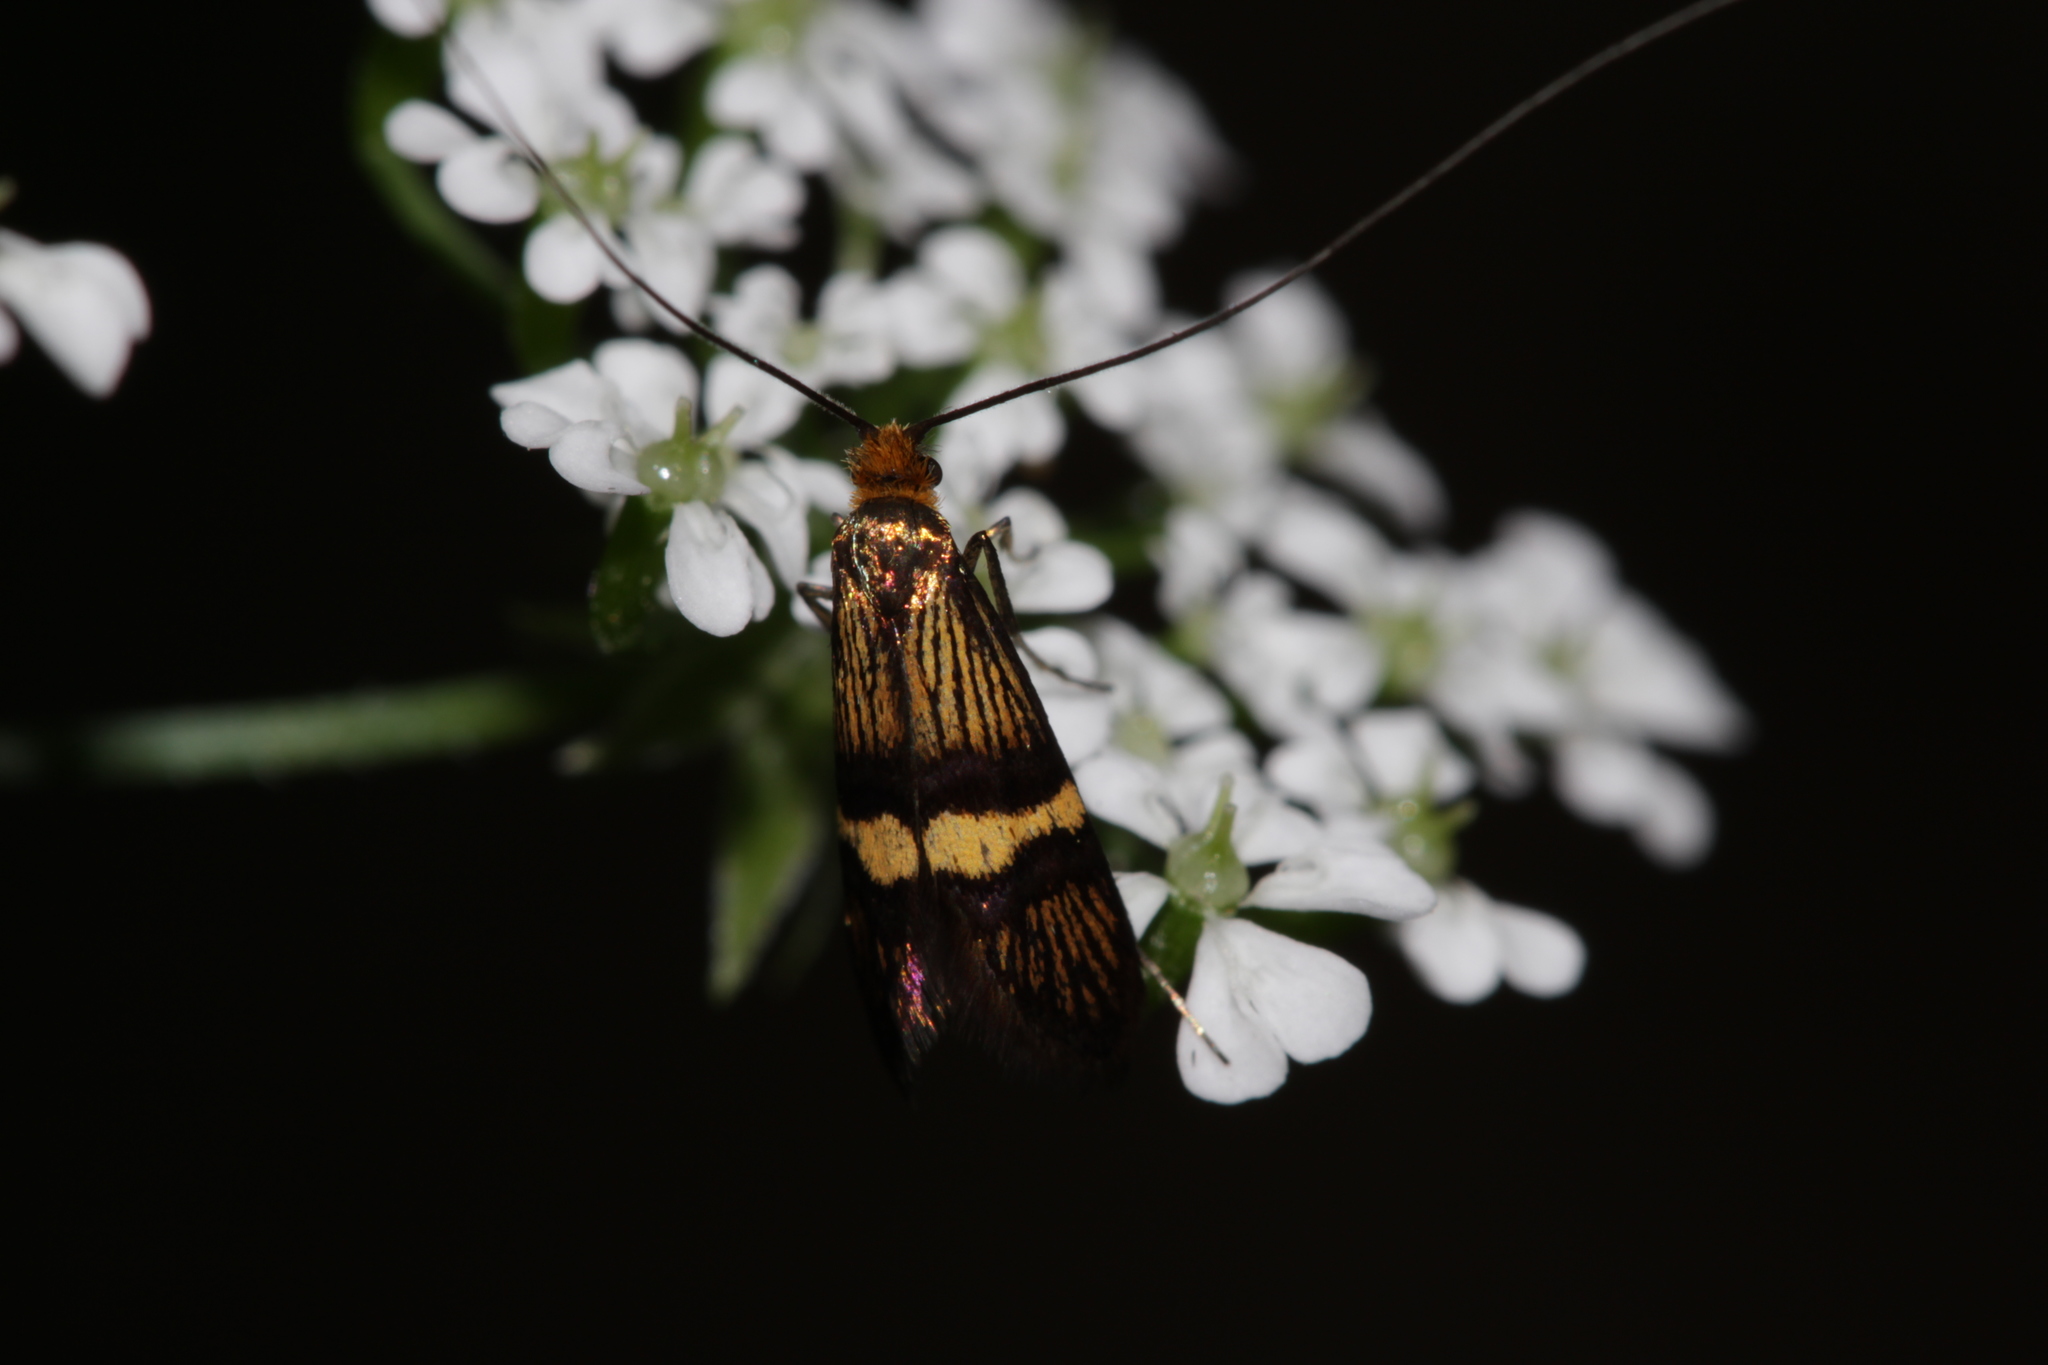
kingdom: Animalia
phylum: Arthropoda
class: Insecta
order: Lepidoptera
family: Adelidae
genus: Adela
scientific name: Adela croesella
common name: Small barred long-horn
